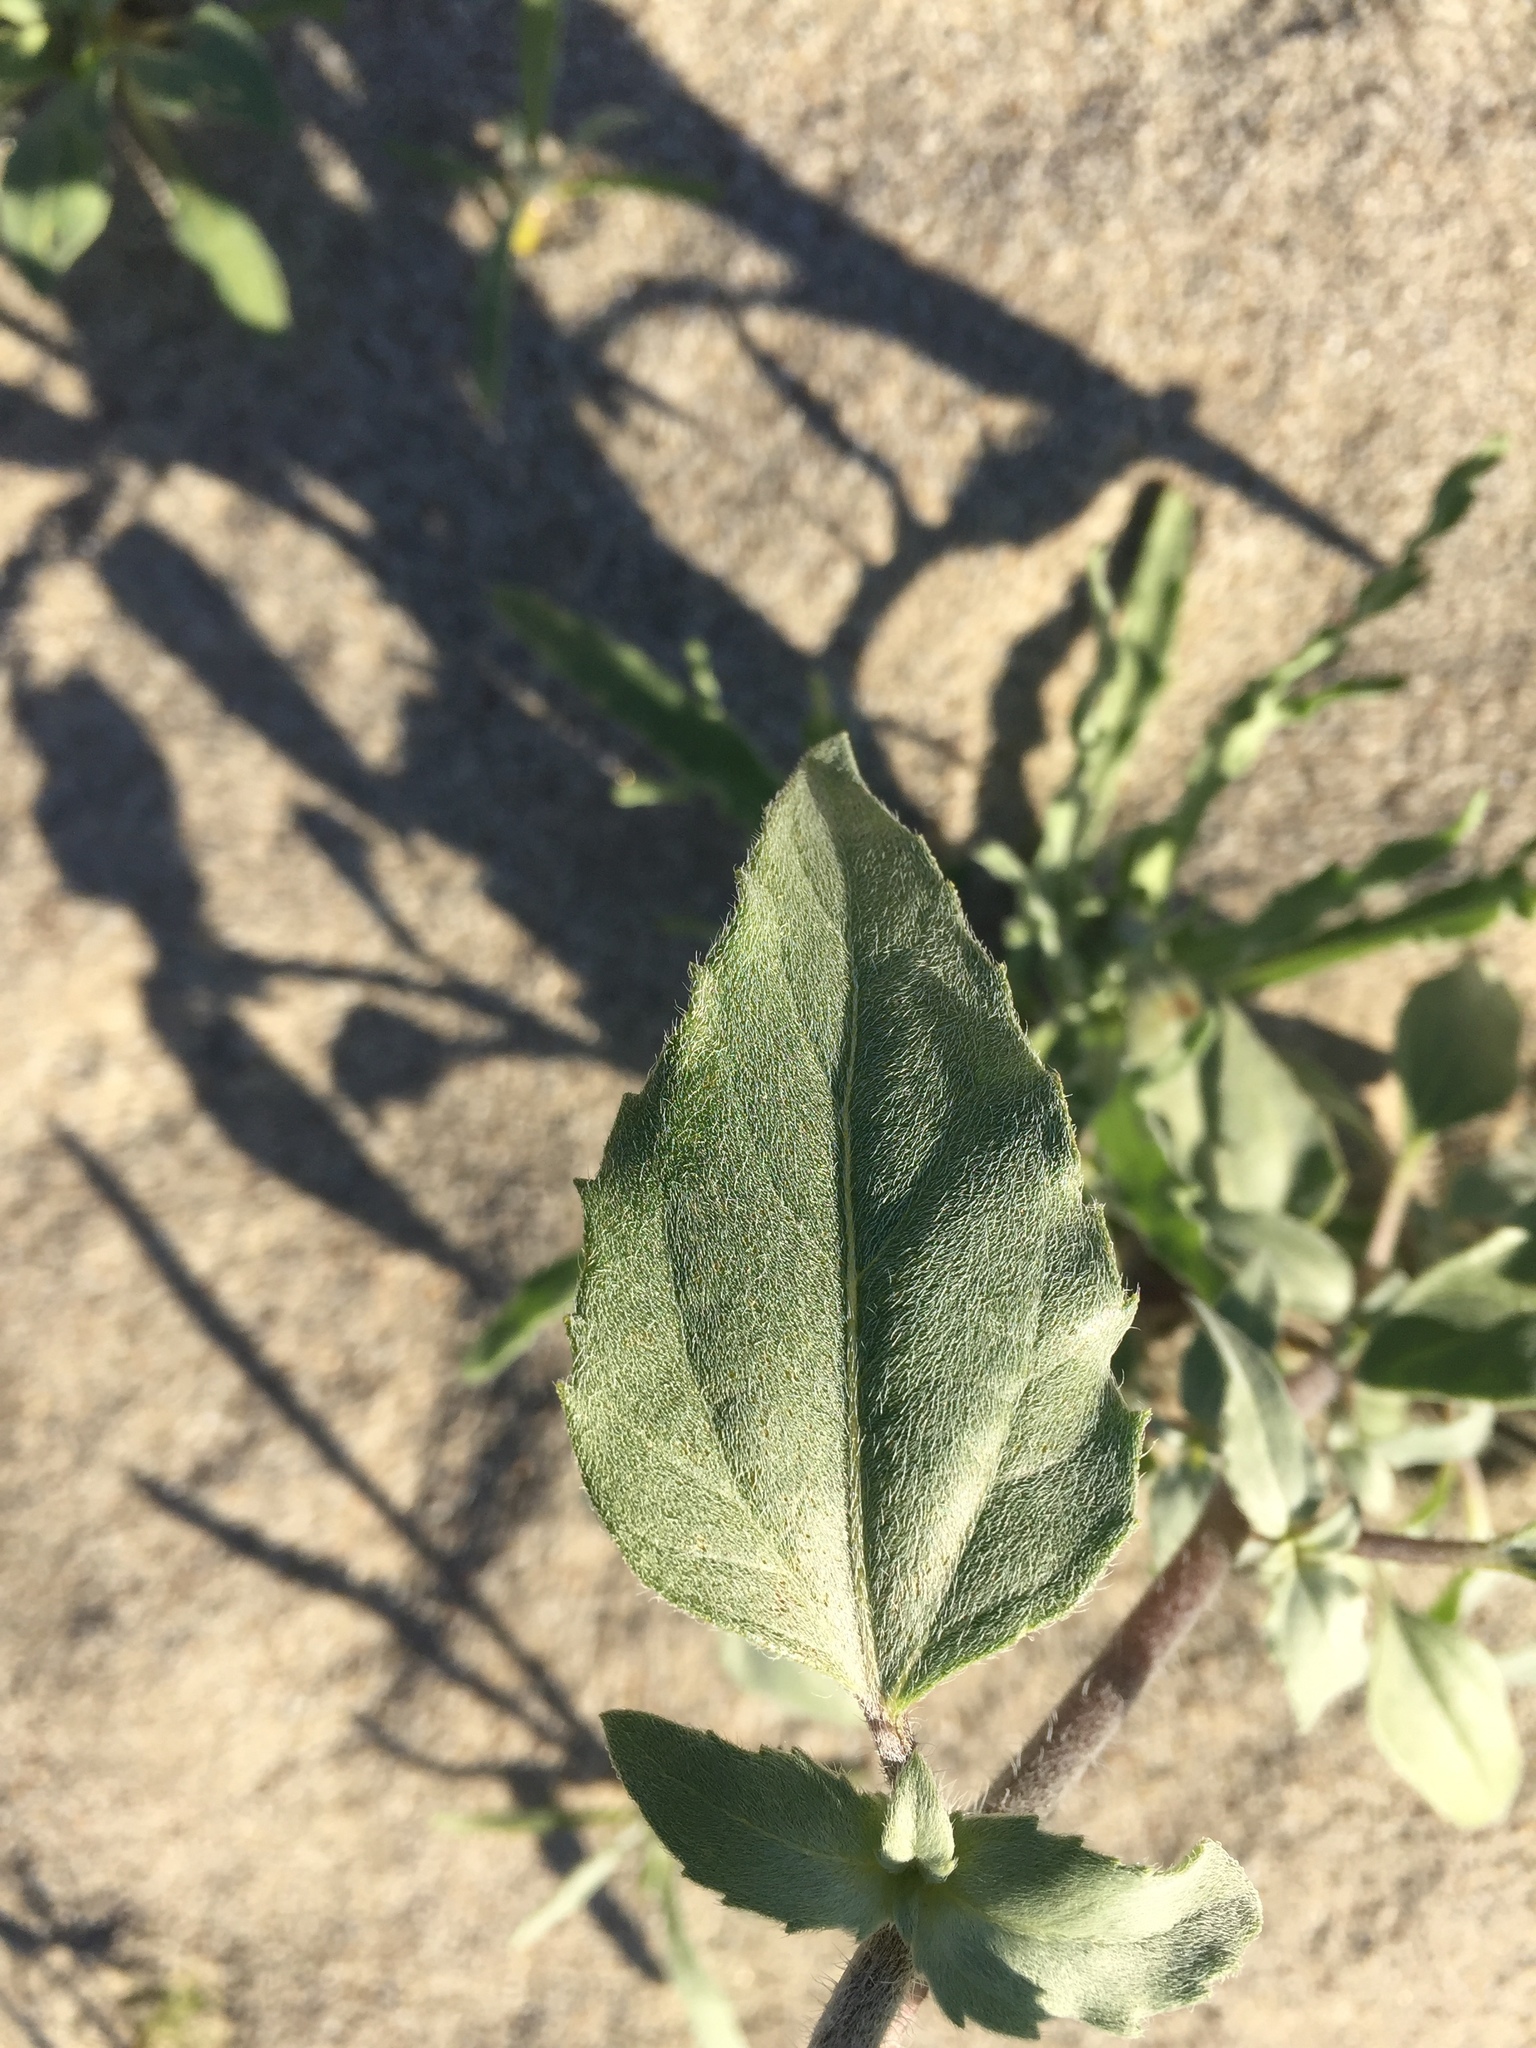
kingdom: Plantae
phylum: Tracheophyta
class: Magnoliopsida
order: Asterales
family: Asteraceae
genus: Helianthus
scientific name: Helianthus petiolaris
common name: Lesser sunflower
